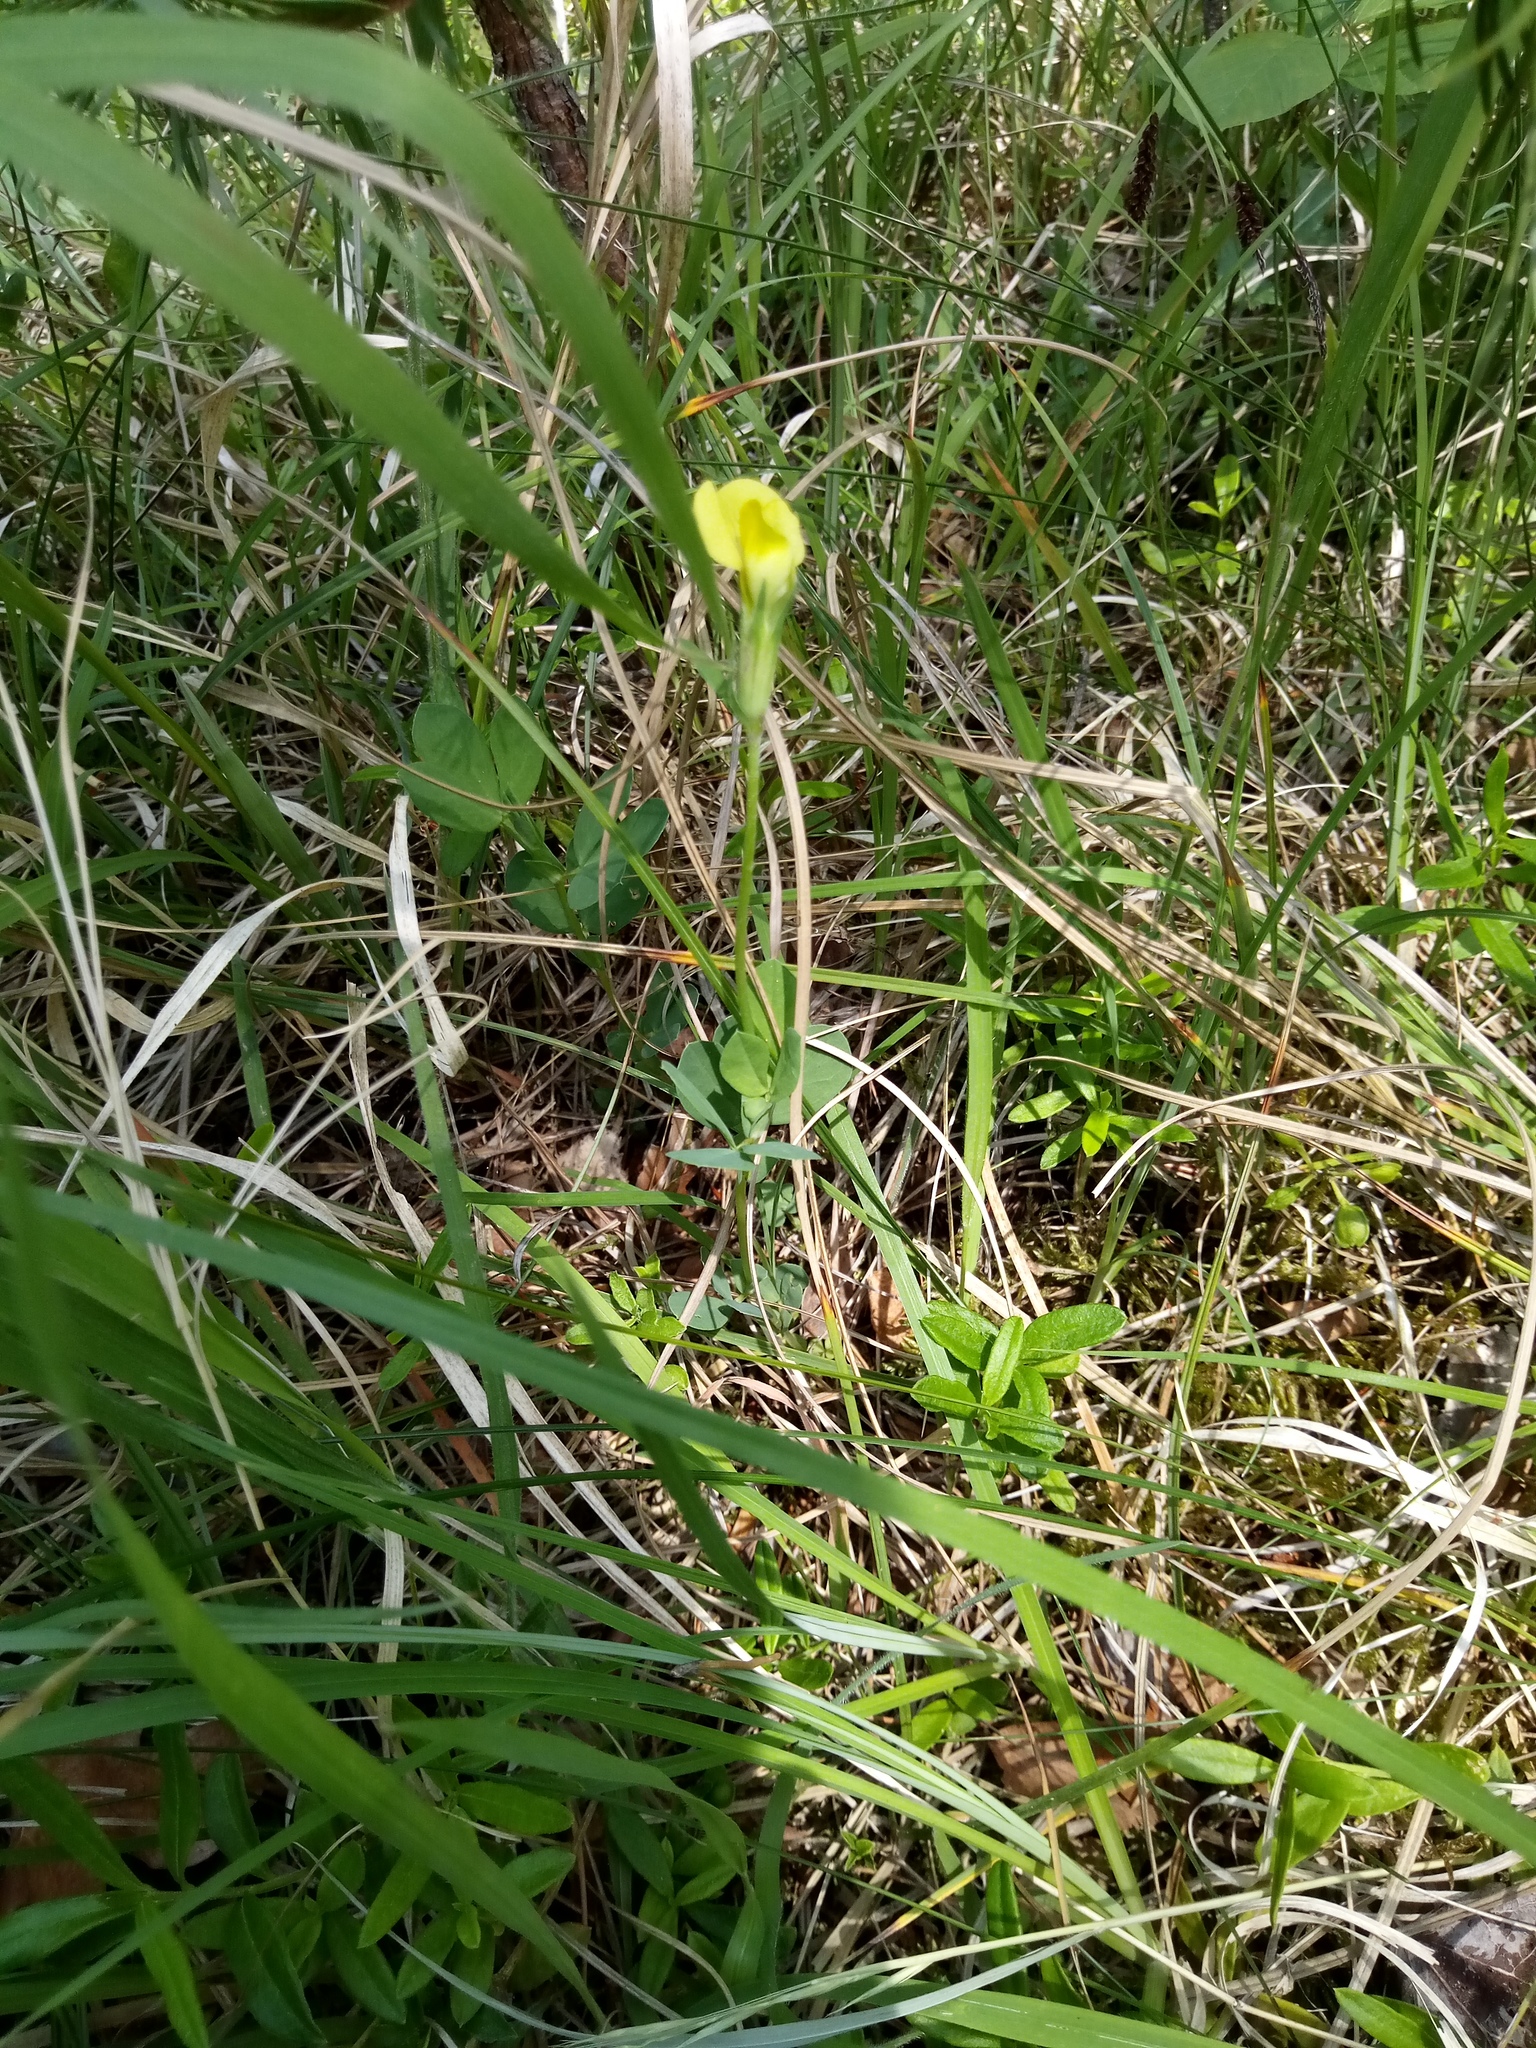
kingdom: Plantae
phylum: Tracheophyta
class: Magnoliopsida
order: Fabales
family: Fabaceae
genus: Lotus
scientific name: Lotus maritimus
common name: Dragon's-teeth
